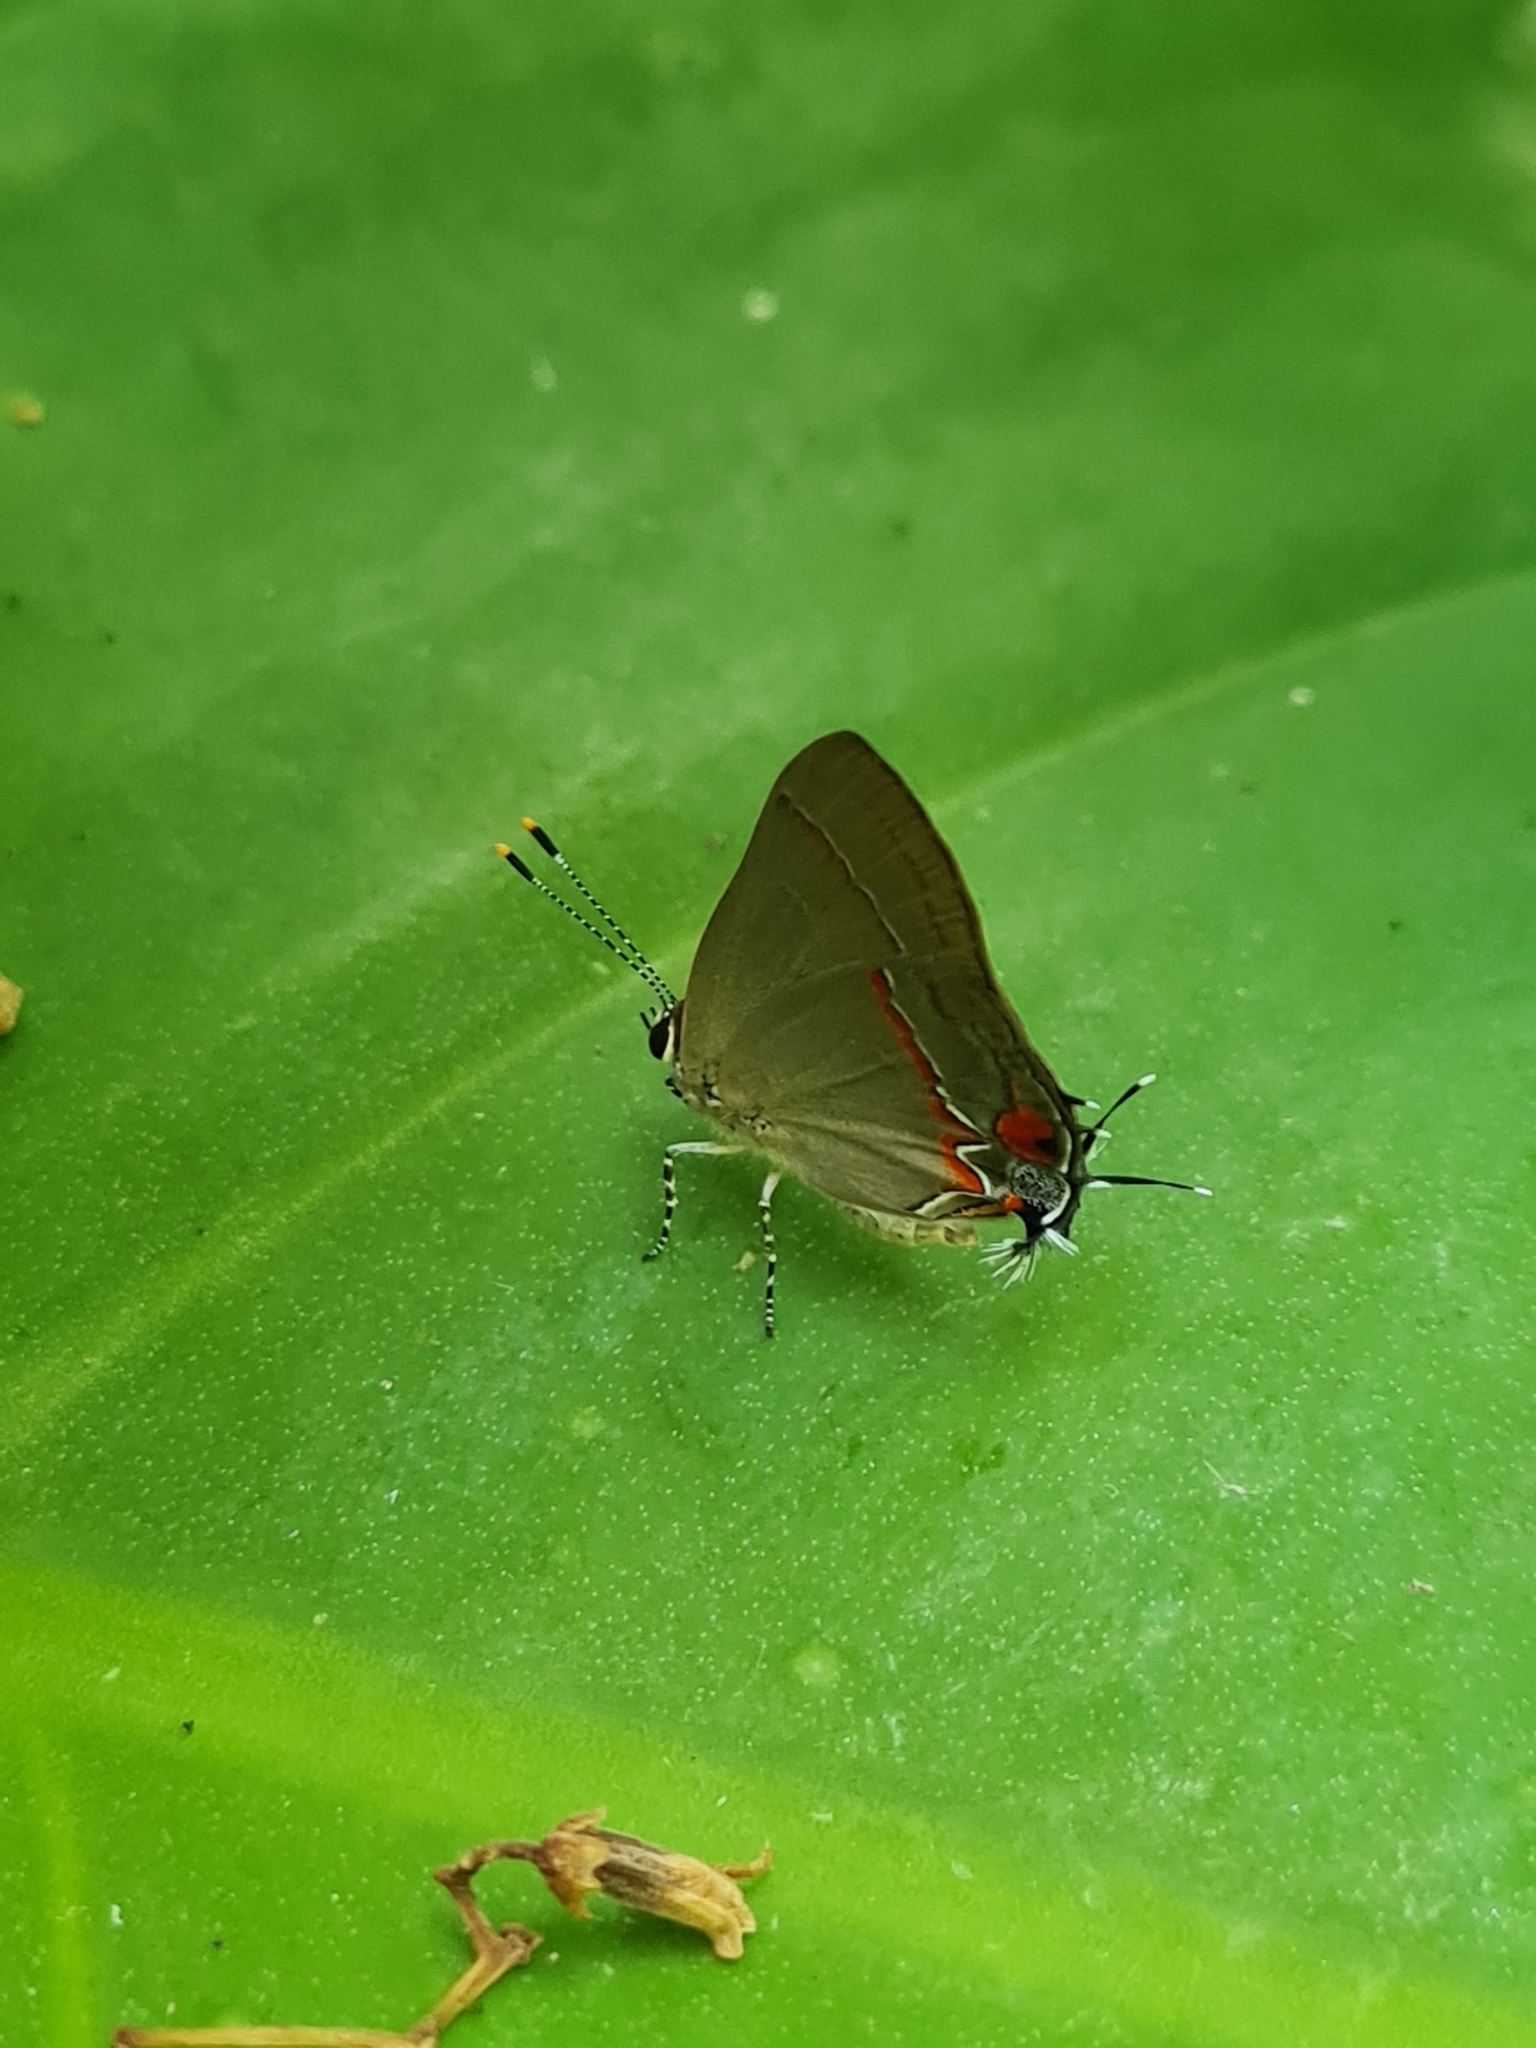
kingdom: Animalia
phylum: Arthropoda
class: Insecta
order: Lepidoptera
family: Lycaenidae
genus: Thecla
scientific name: Thecla syllis
